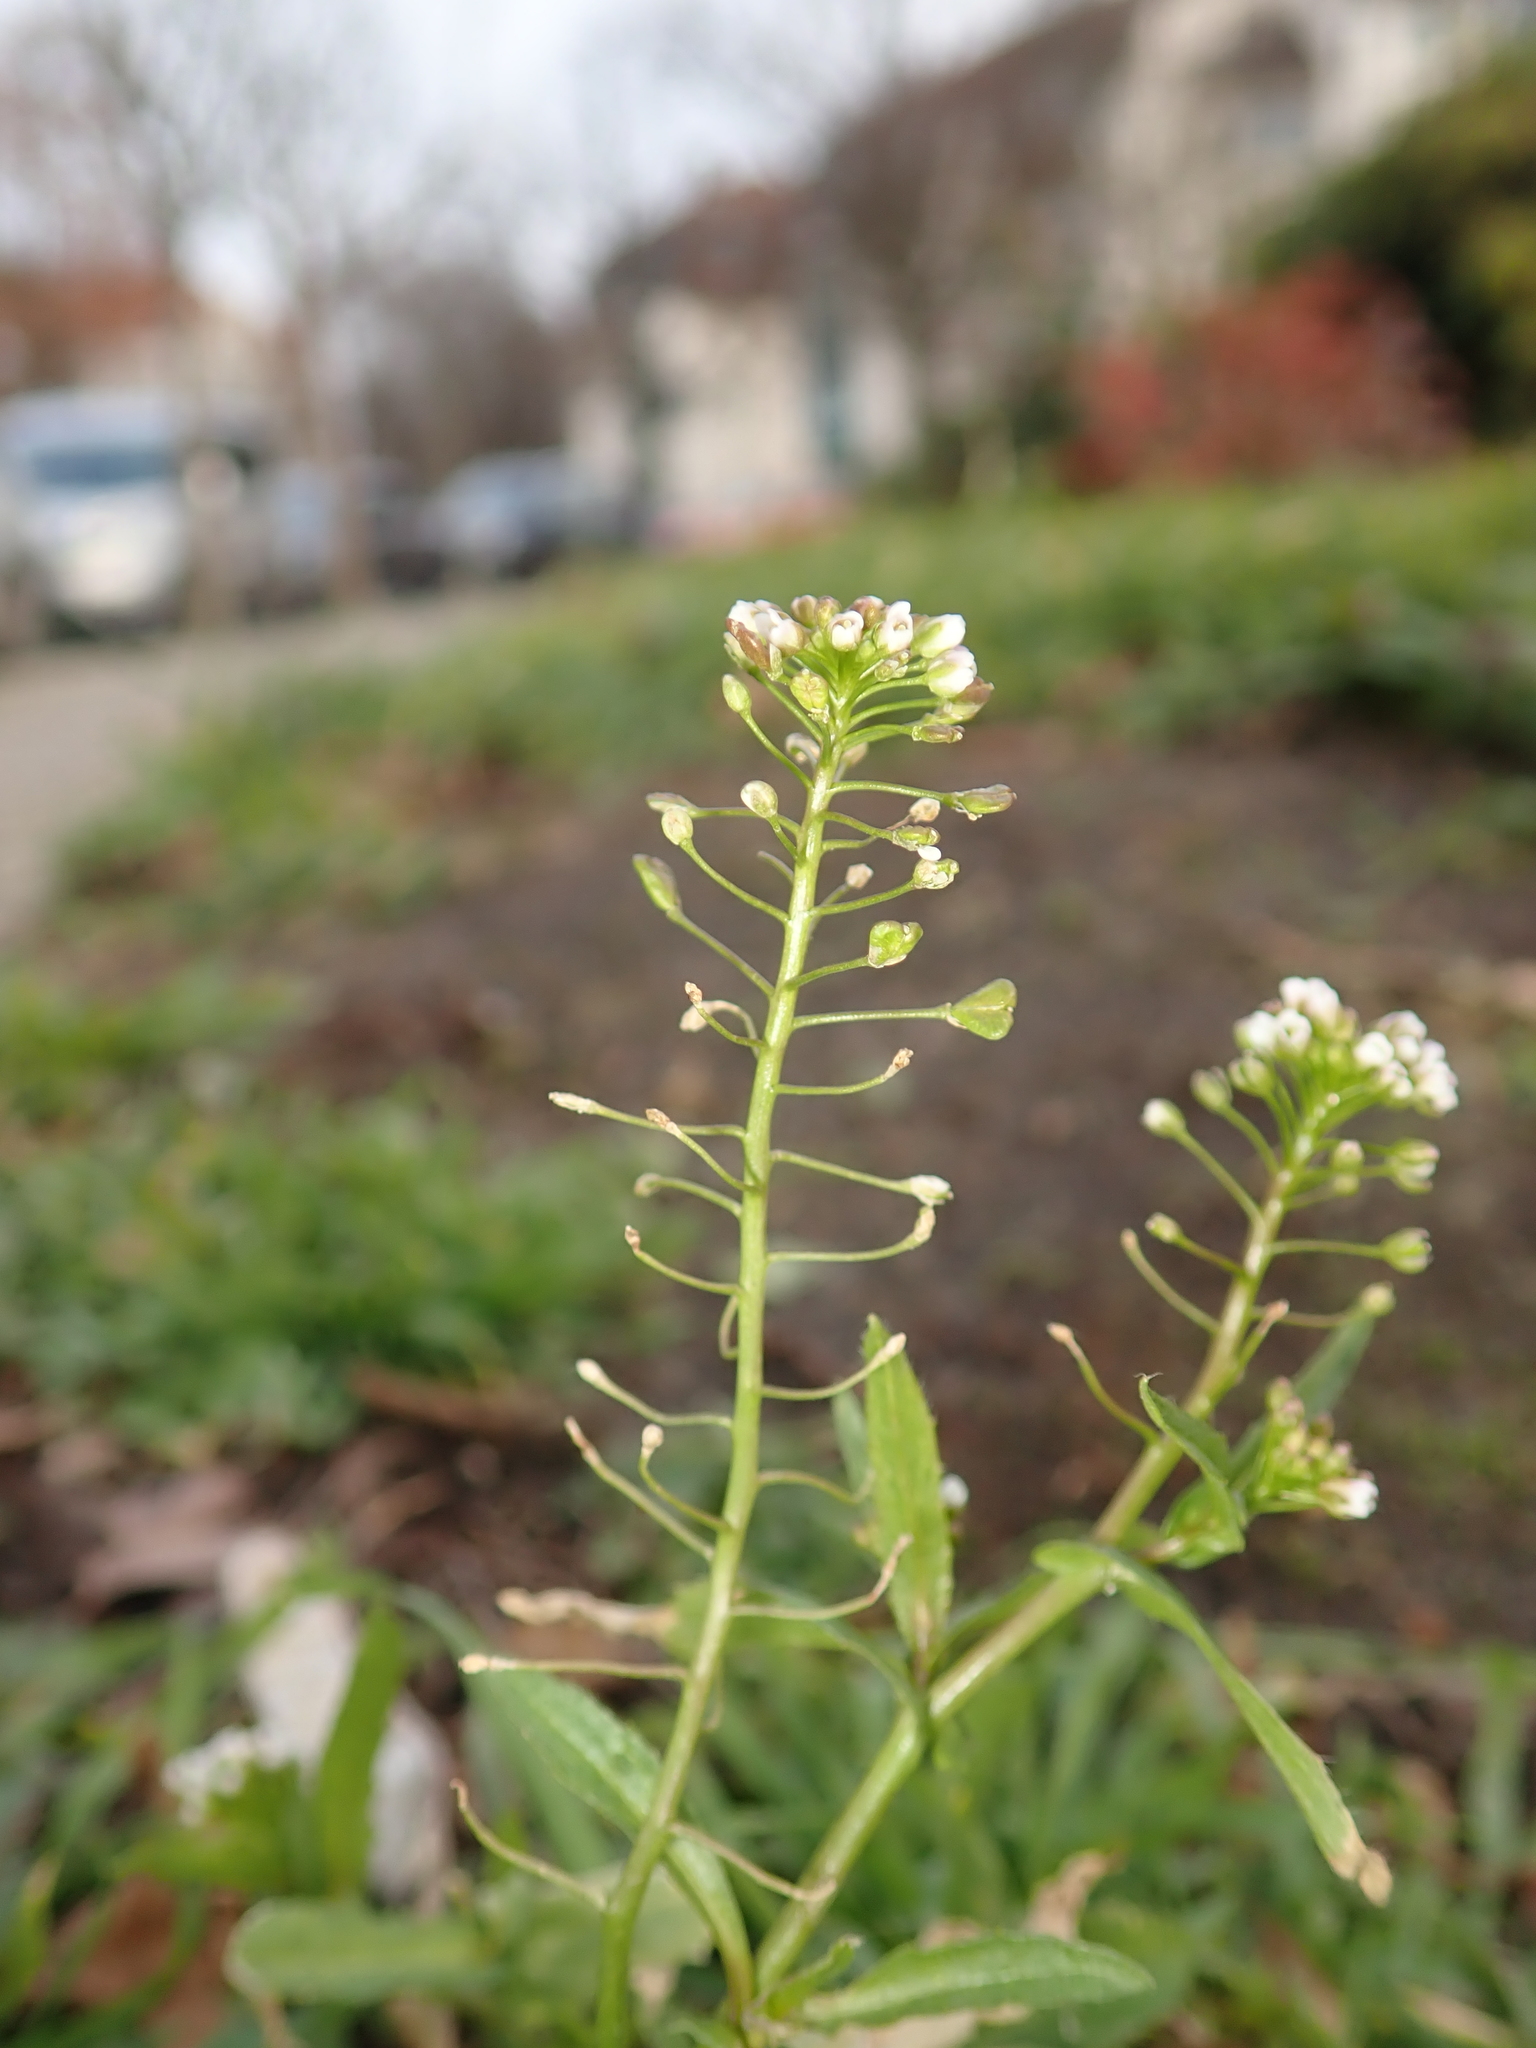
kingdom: Plantae
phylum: Tracheophyta
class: Magnoliopsida
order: Brassicales
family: Brassicaceae
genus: Capsella
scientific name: Capsella bursa-pastoris
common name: Shepherd's purse
